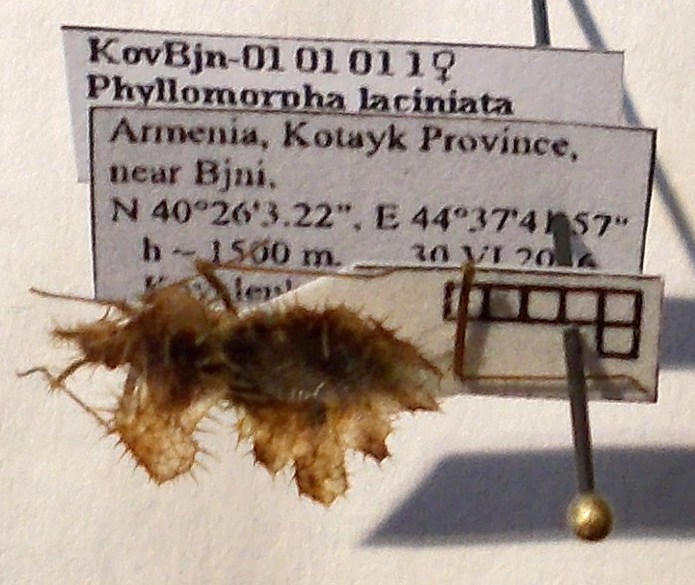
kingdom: Animalia
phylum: Arthropoda
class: Insecta
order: Hemiptera
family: Coreidae
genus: Phyllomorpha
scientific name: Phyllomorpha laciniata
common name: Golden egg bug
